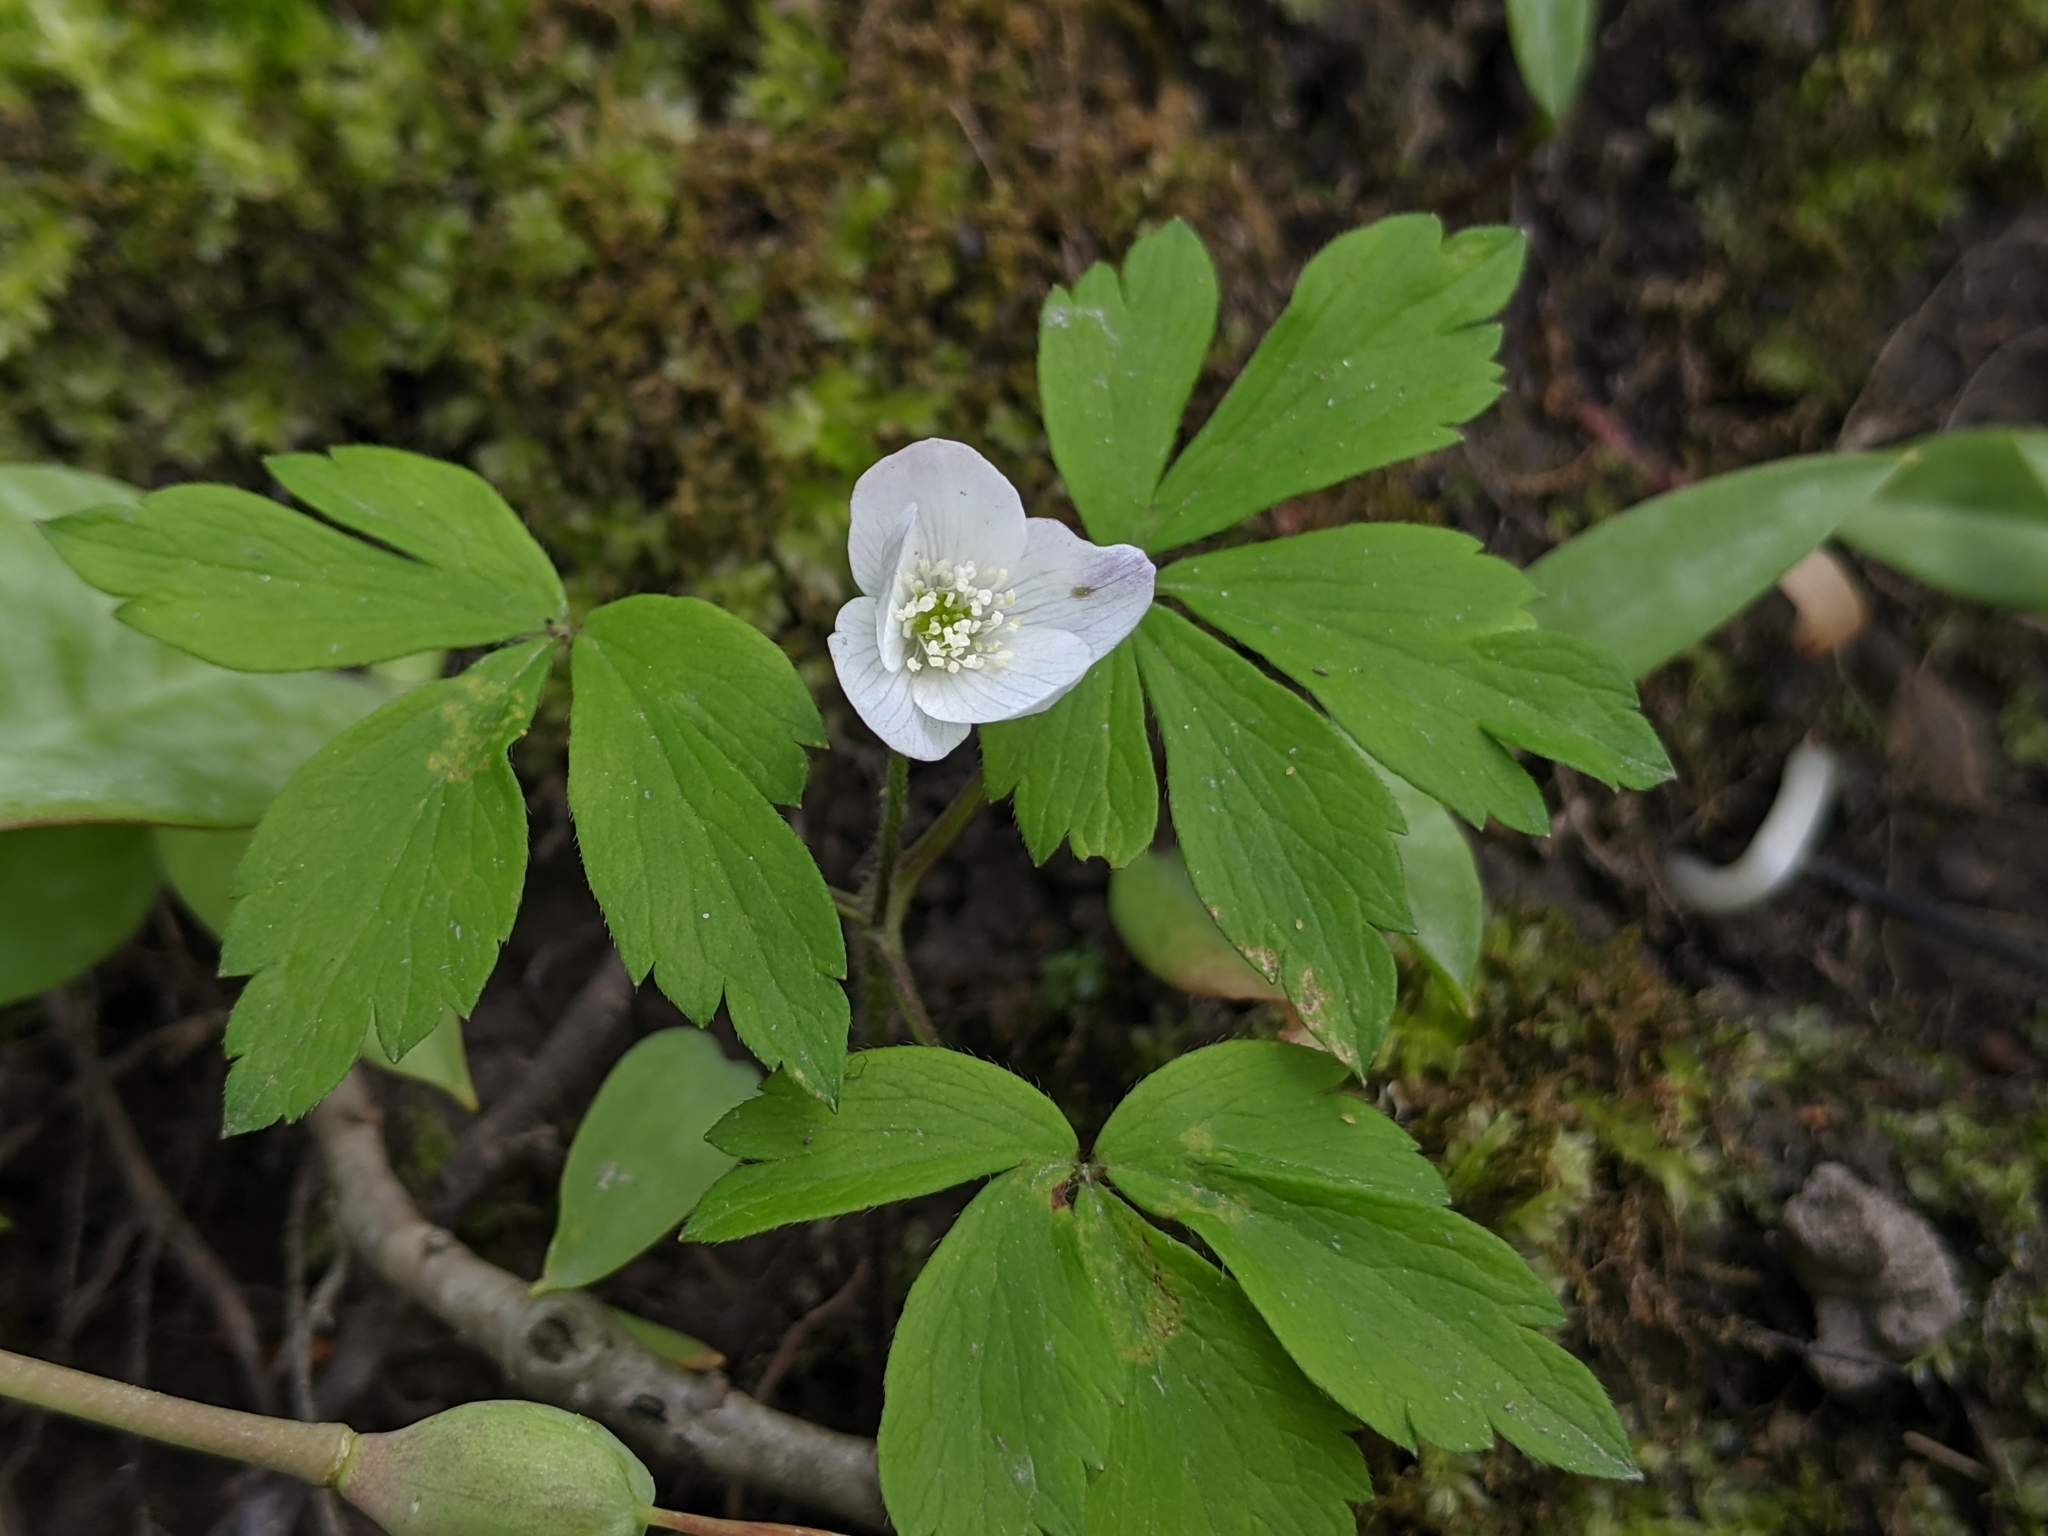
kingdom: Plantae
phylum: Tracheophyta
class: Magnoliopsida
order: Ranunculales
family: Ranunculaceae
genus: Anemone
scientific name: Anemone quinquefolia
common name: Wood anemone
